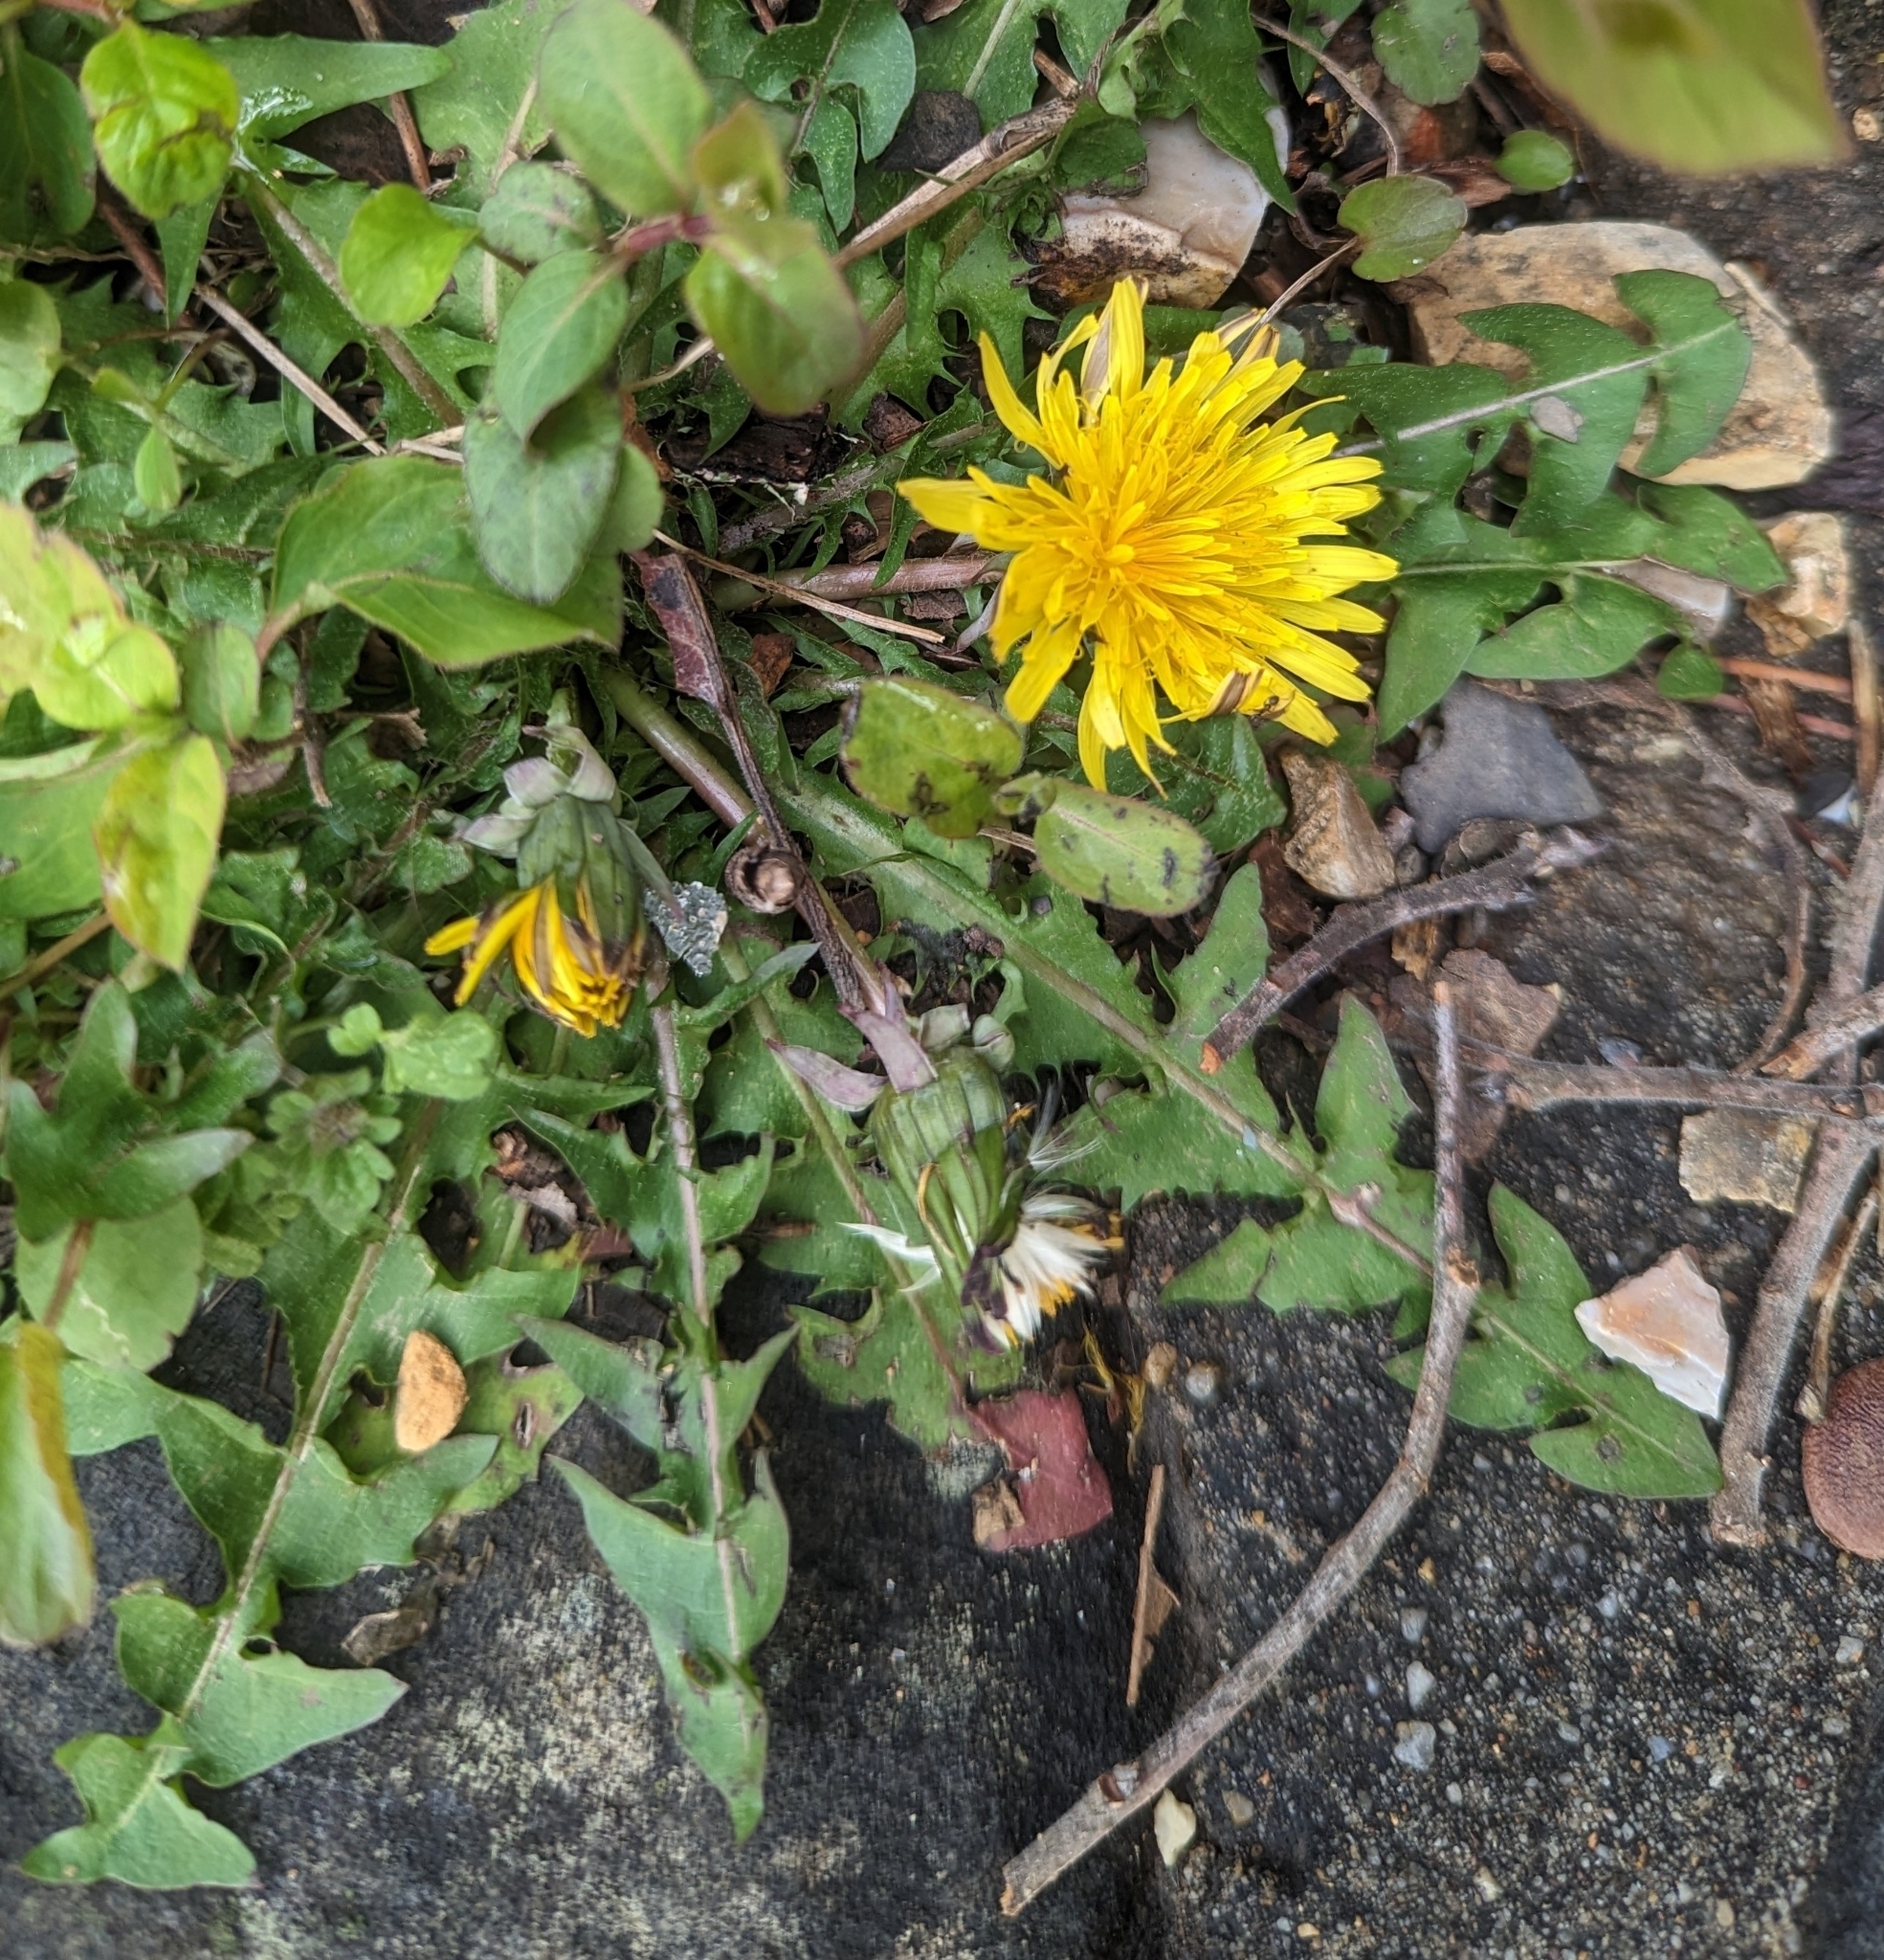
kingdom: Plantae
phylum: Tracheophyta
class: Magnoliopsida
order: Asterales
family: Asteraceae
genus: Taraxacum
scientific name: Taraxacum erythrospermum
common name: Rock dandelion
